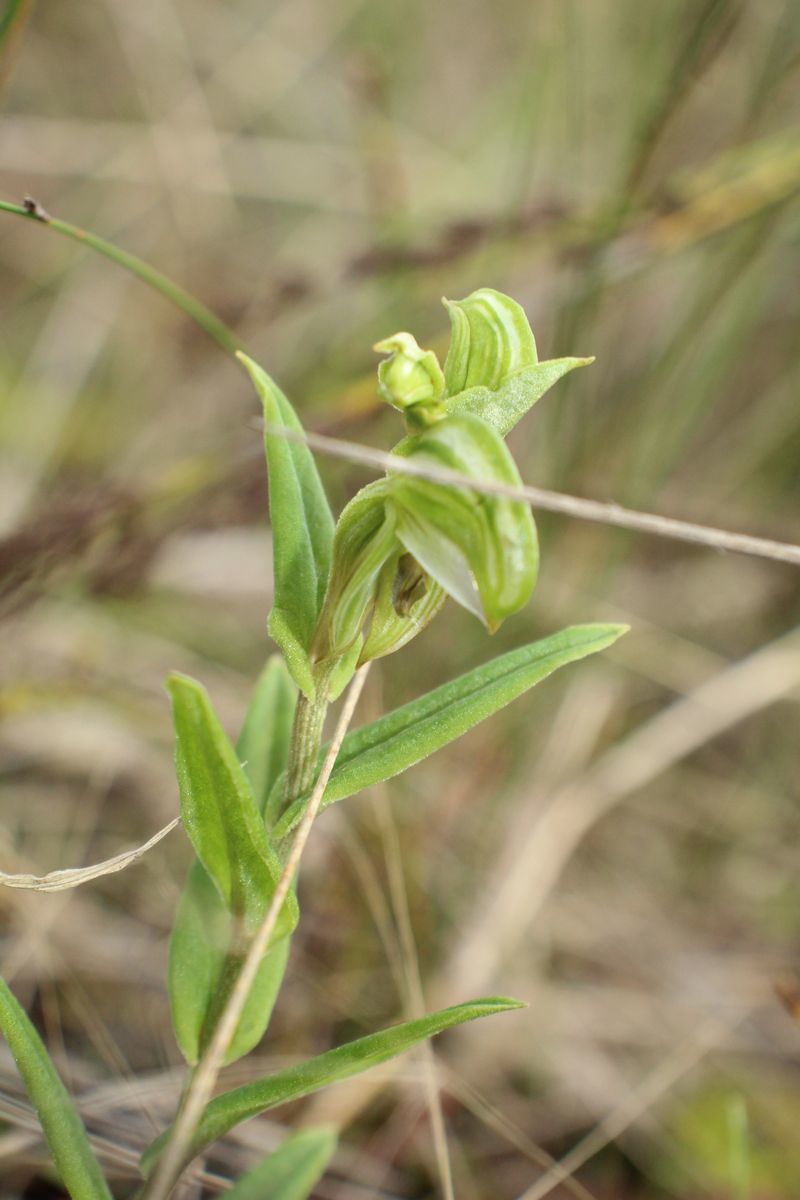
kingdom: Plantae
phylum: Tracheophyta
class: Liliopsida
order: Asparagales
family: Orchidaceae
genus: Pterostylis
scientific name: Pterostylis vittata
